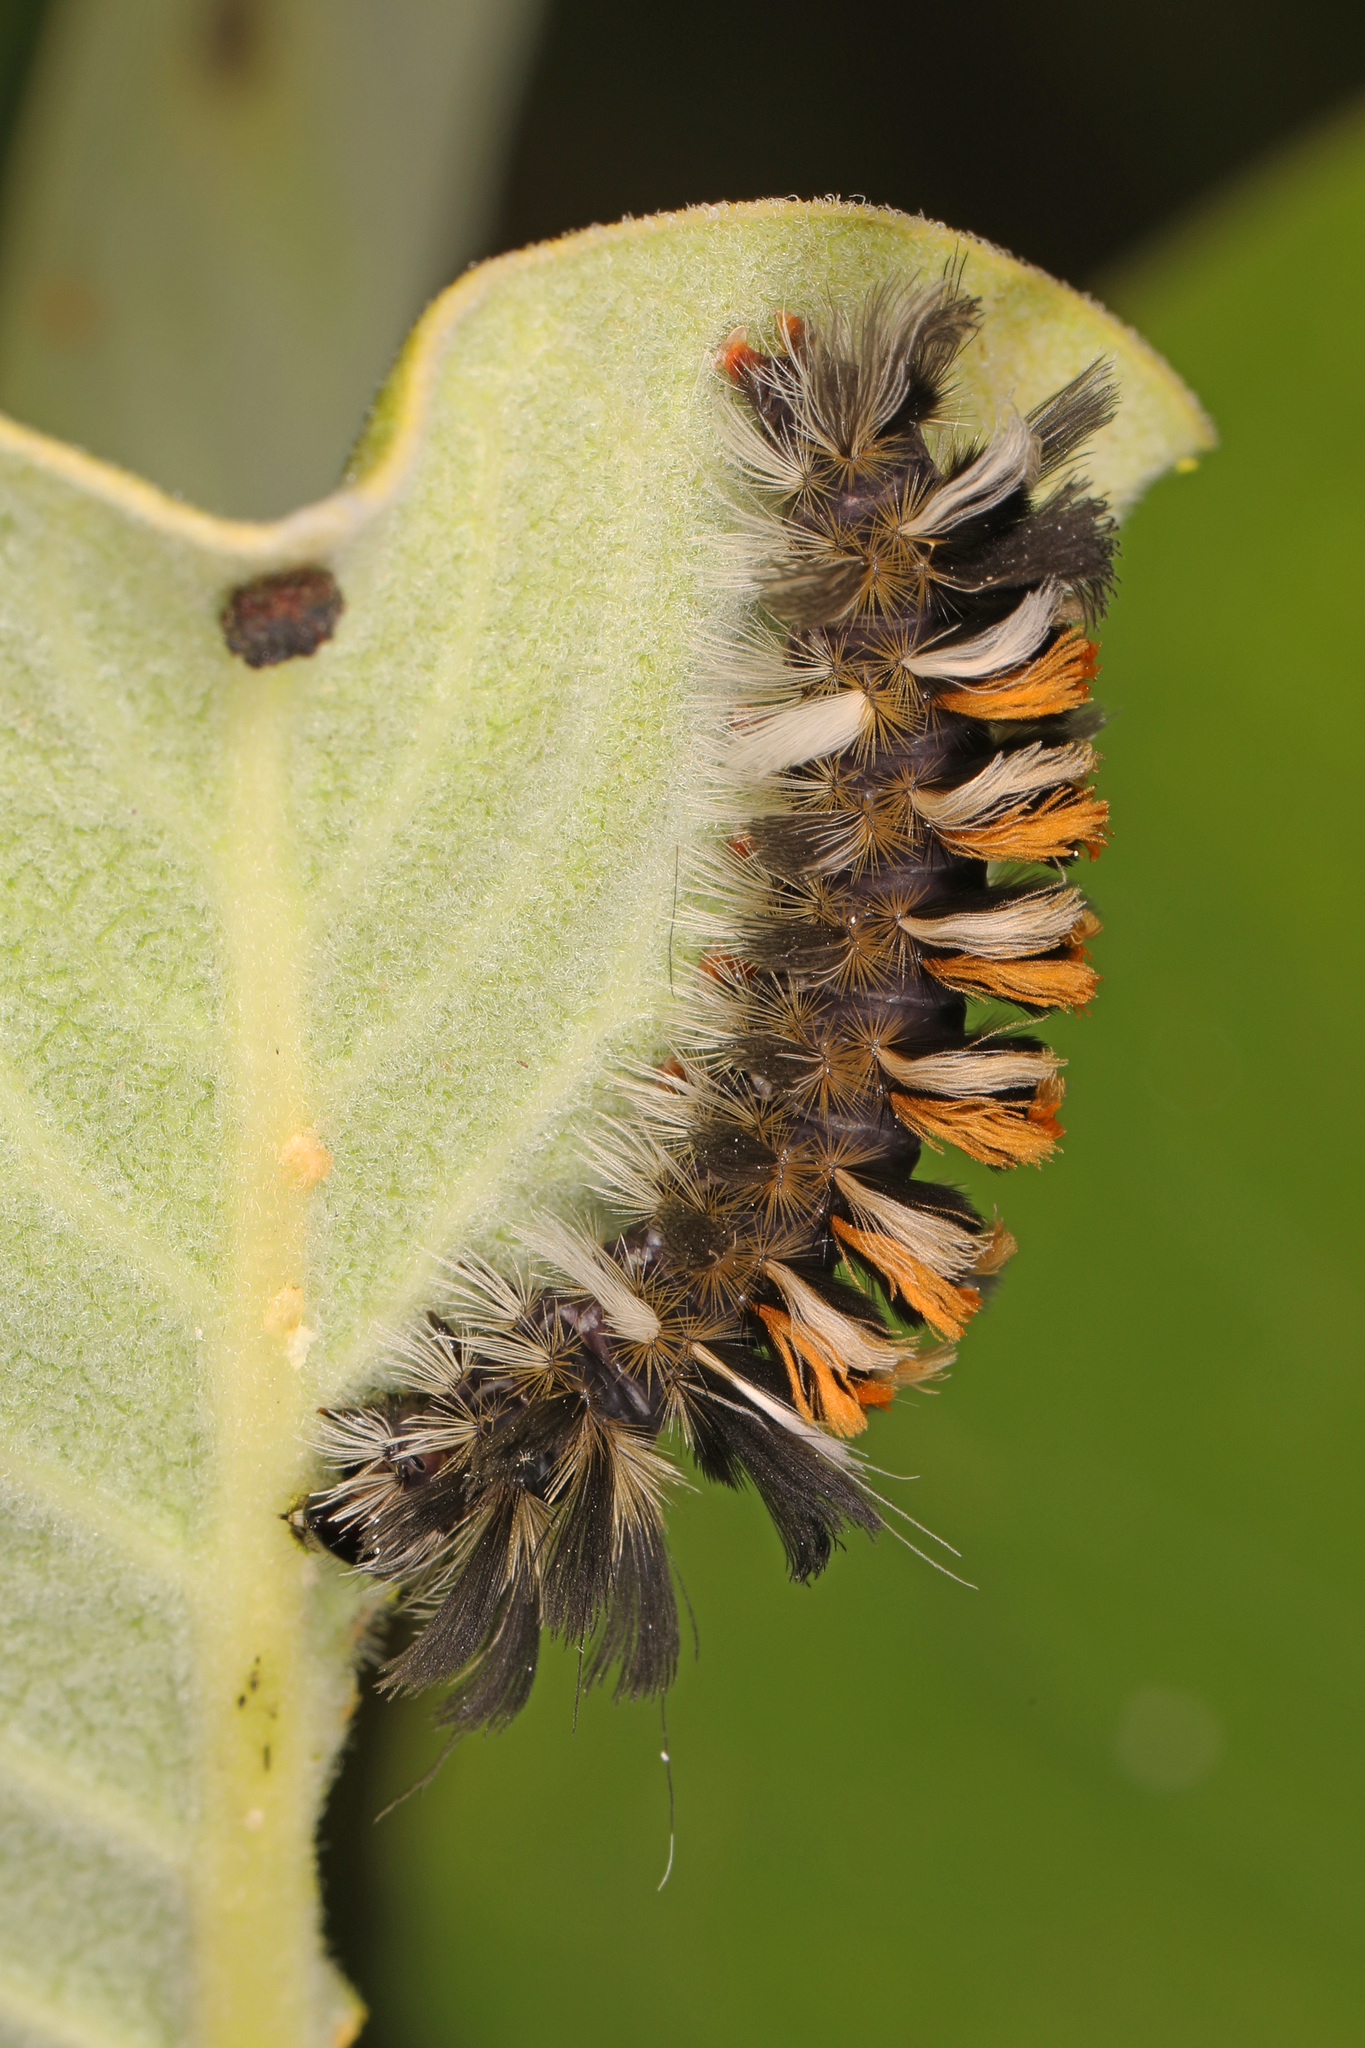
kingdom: Animalia
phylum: Arthropoda
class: Insecta
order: Lepidoptera
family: Erebidae
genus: Euchaetes
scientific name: Euchaetes egle
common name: Milkweed tussock moth
